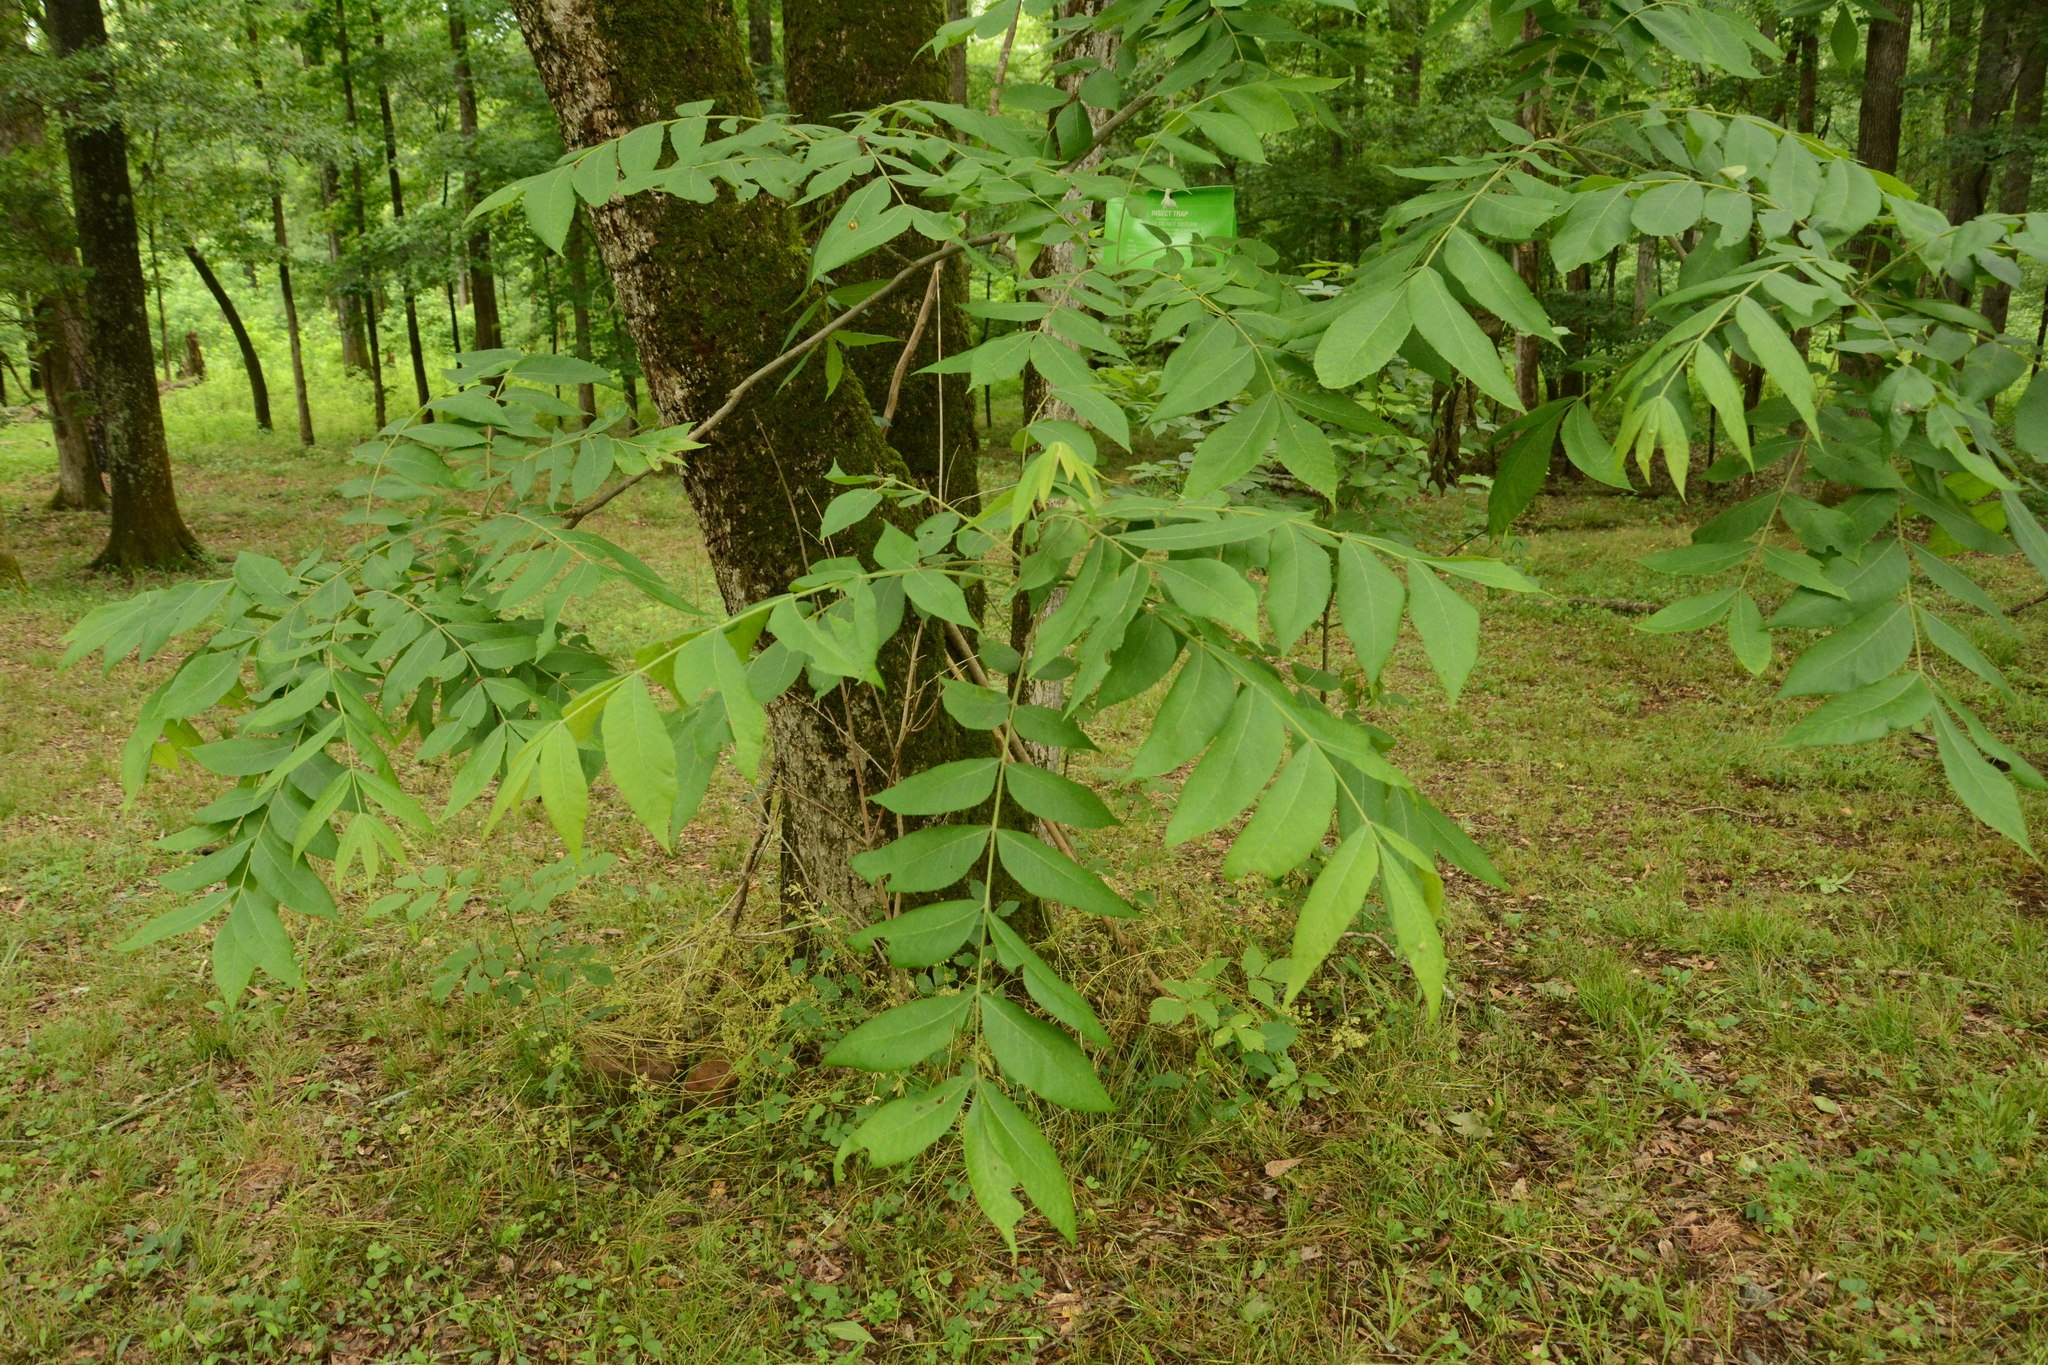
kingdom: Plantae
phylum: Tracheophyta
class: Magnoliopsida
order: Fagales
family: Juglandaceae
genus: Carya
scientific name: Carya illinoinensis
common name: Pecan
